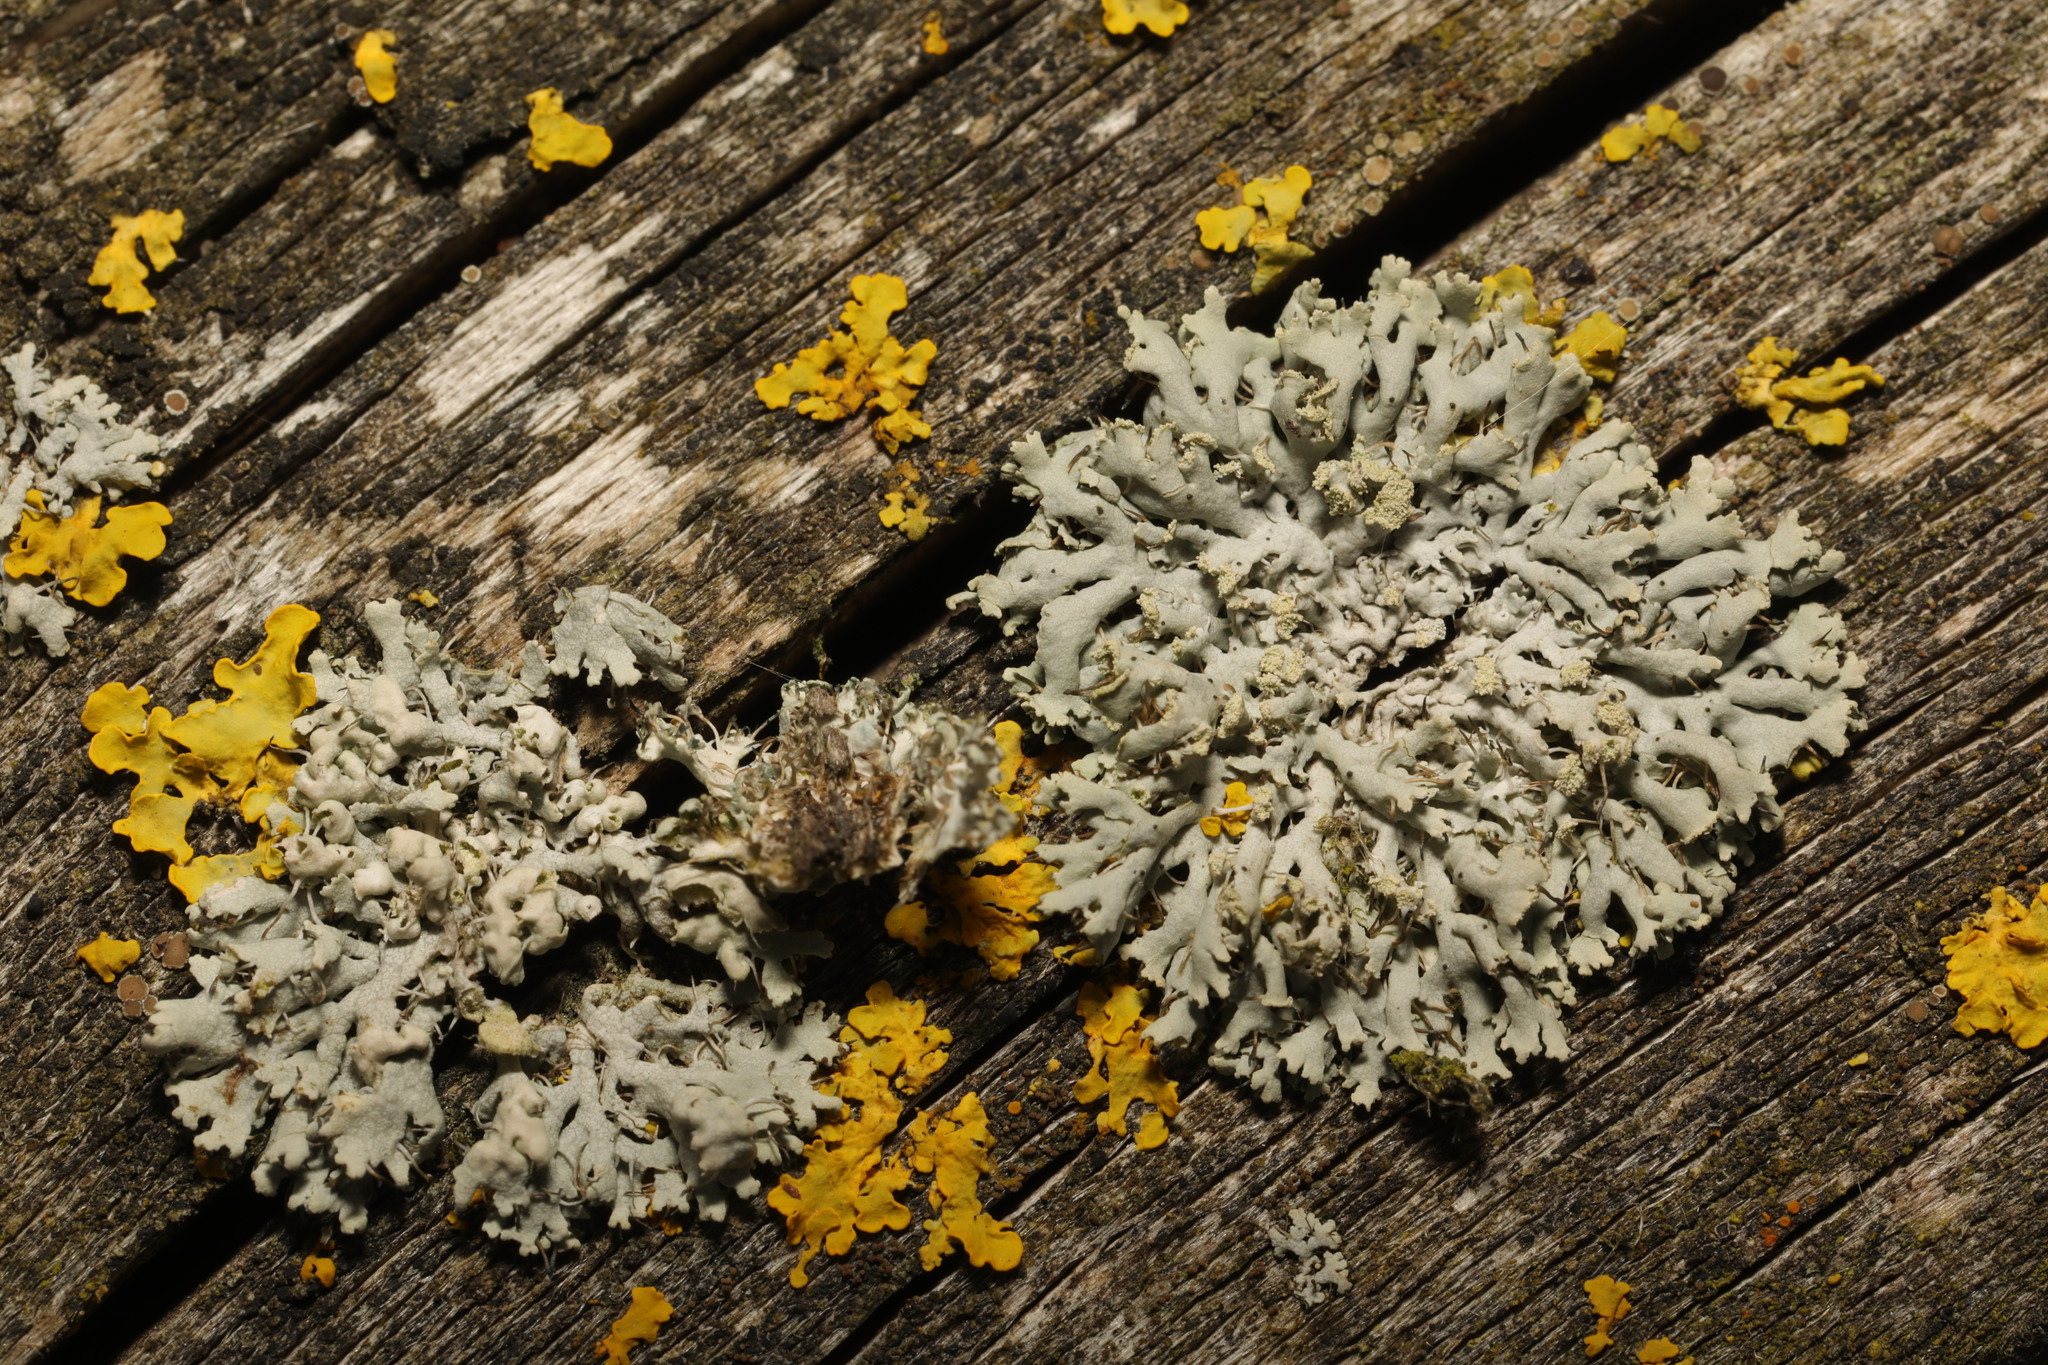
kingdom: Fungi
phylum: Ascomycota
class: Lecanoromycetes
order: Caliciales
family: Physciaceae
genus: Physcia
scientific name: Physcia adscendens
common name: Hooded rosette lichen
